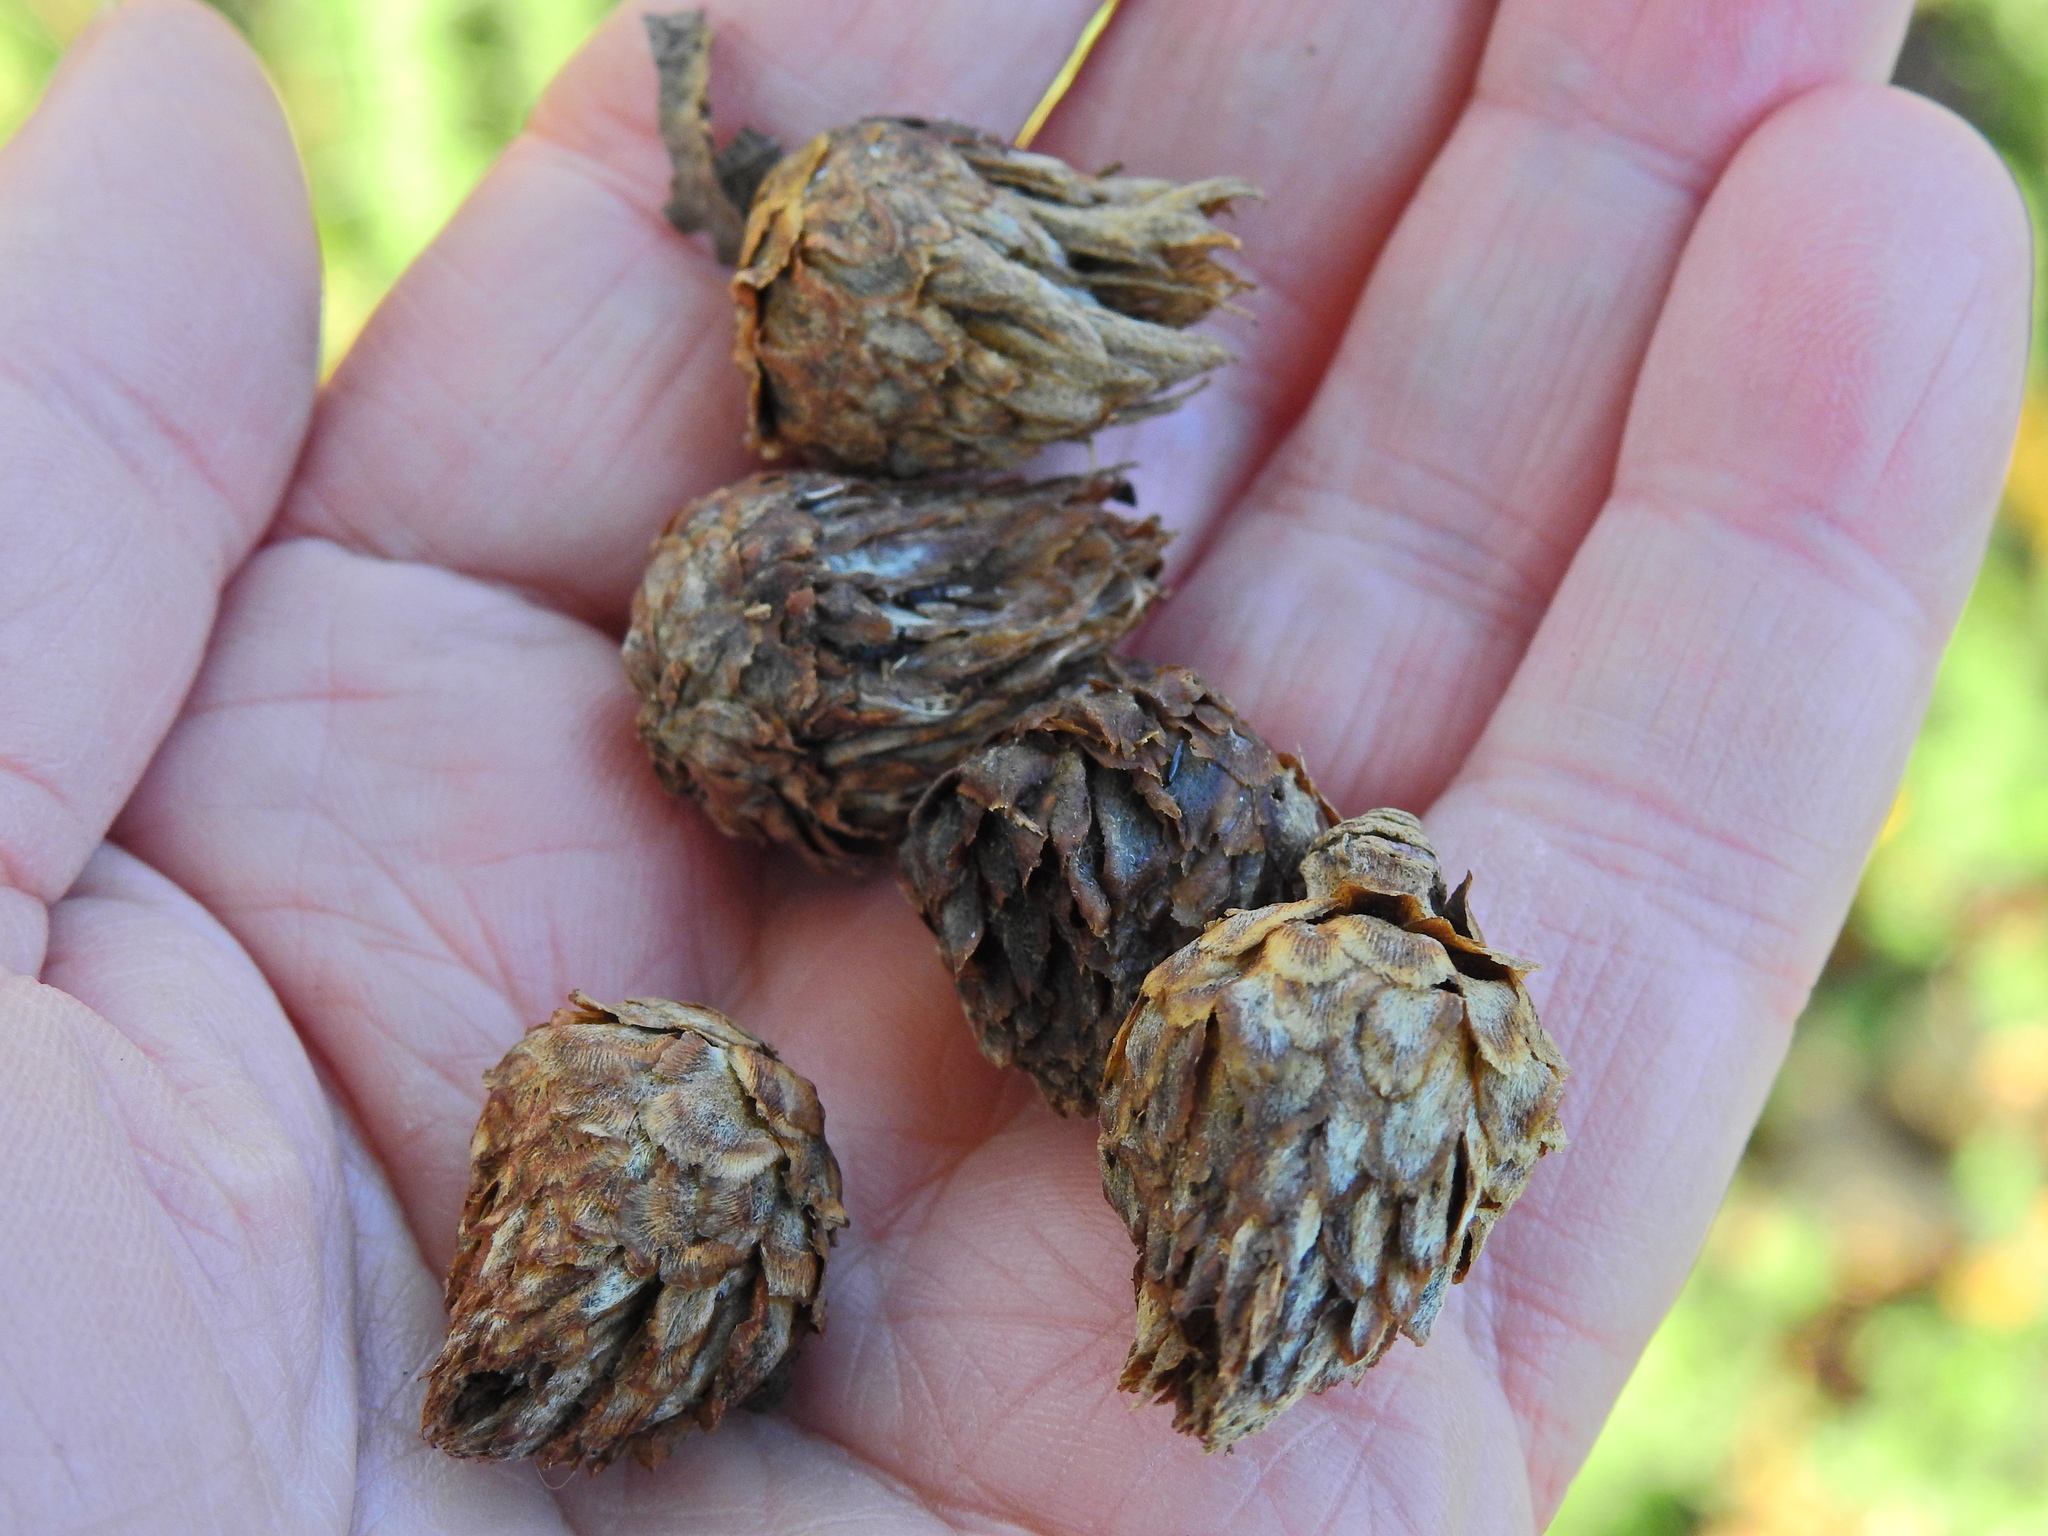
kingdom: Animalia
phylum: Arthropoda
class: Insecta
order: Hymenoptera
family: Cynipidae
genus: Andricus
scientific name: Andricus foecundatrix
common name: Artichoke gall
